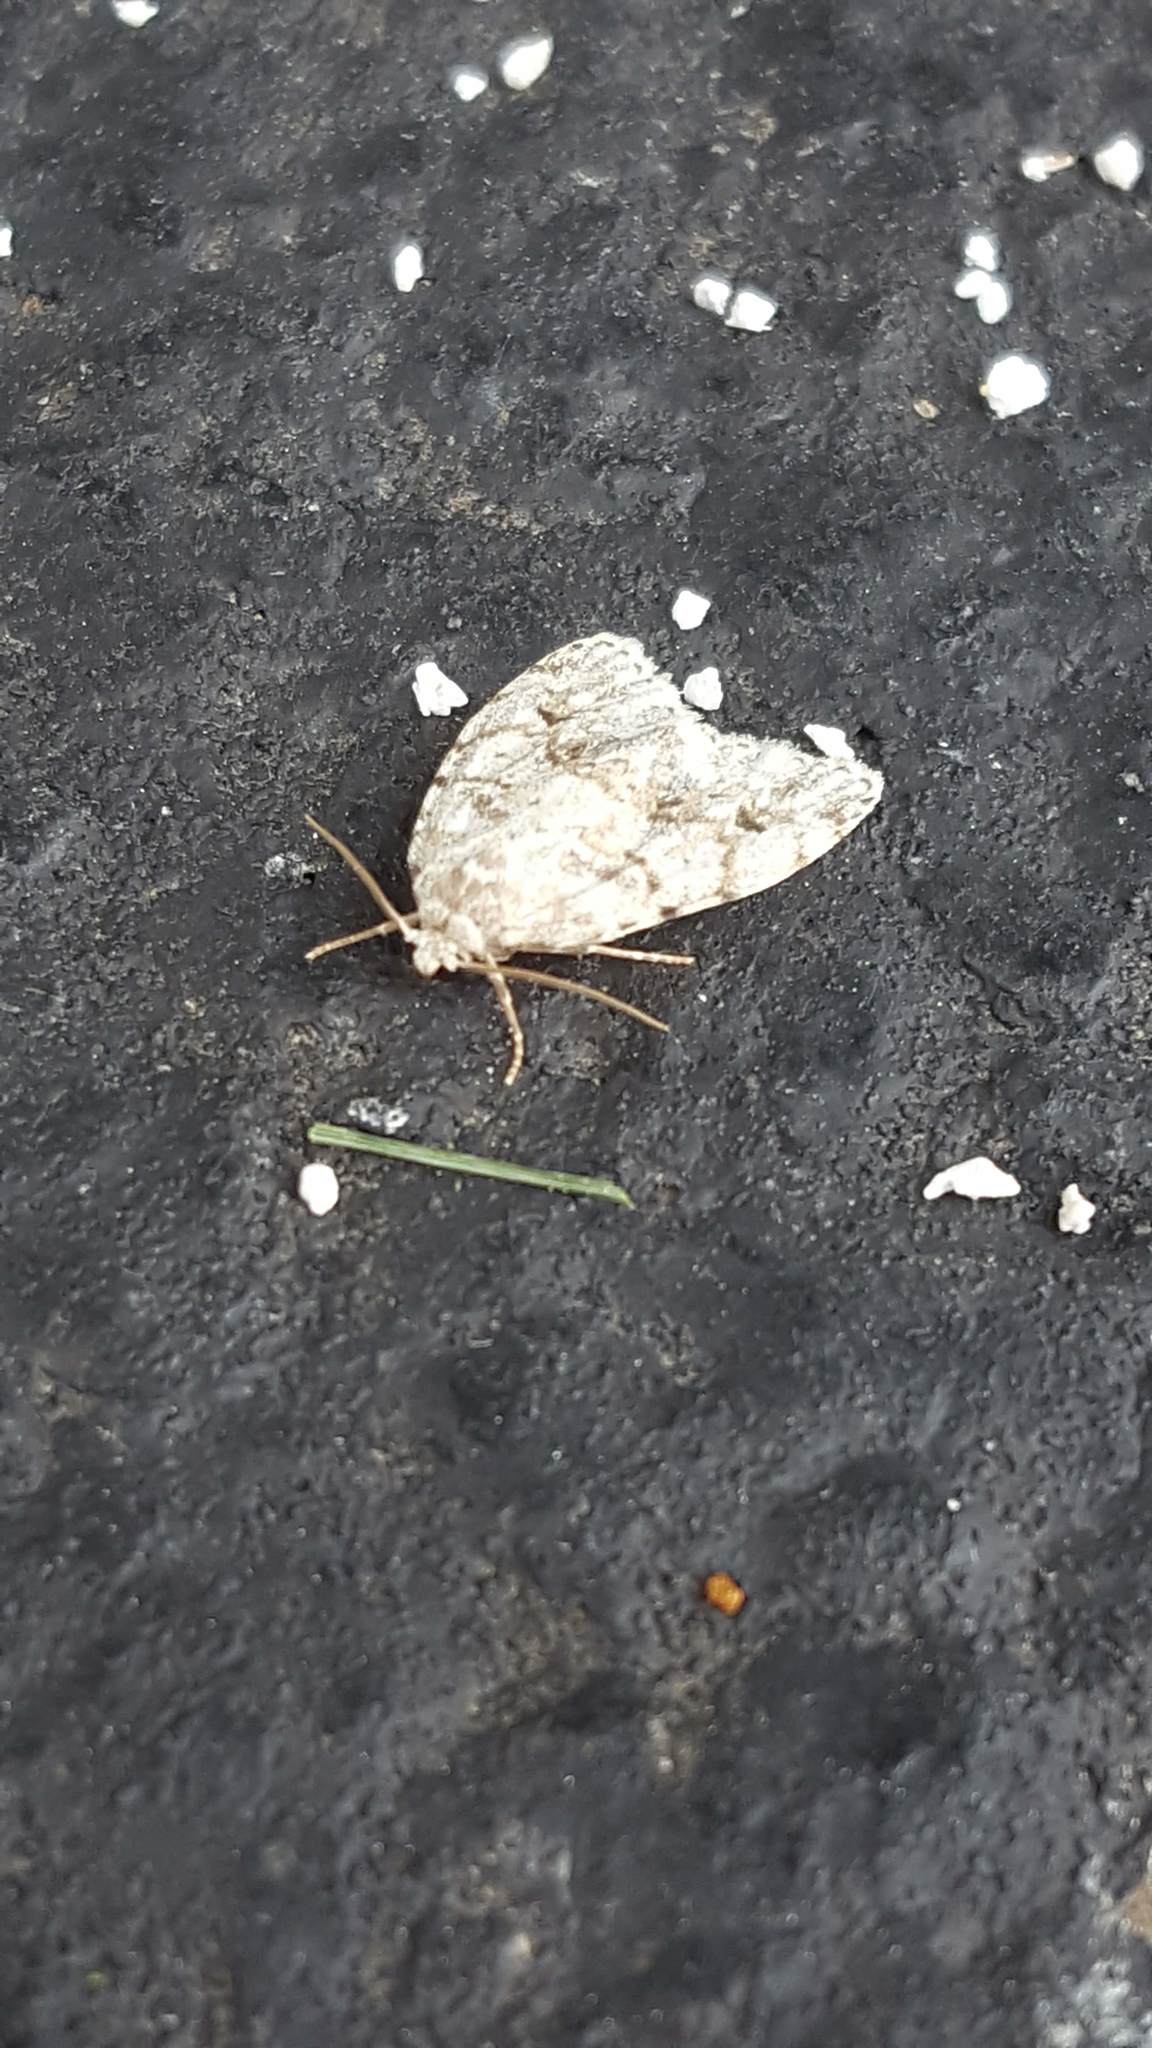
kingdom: Animalia
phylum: Arthropoda
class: Insecta
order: Lepidoptera
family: Erebidae
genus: Clemensia
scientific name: Clemensia albata
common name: Little white lichen moth
